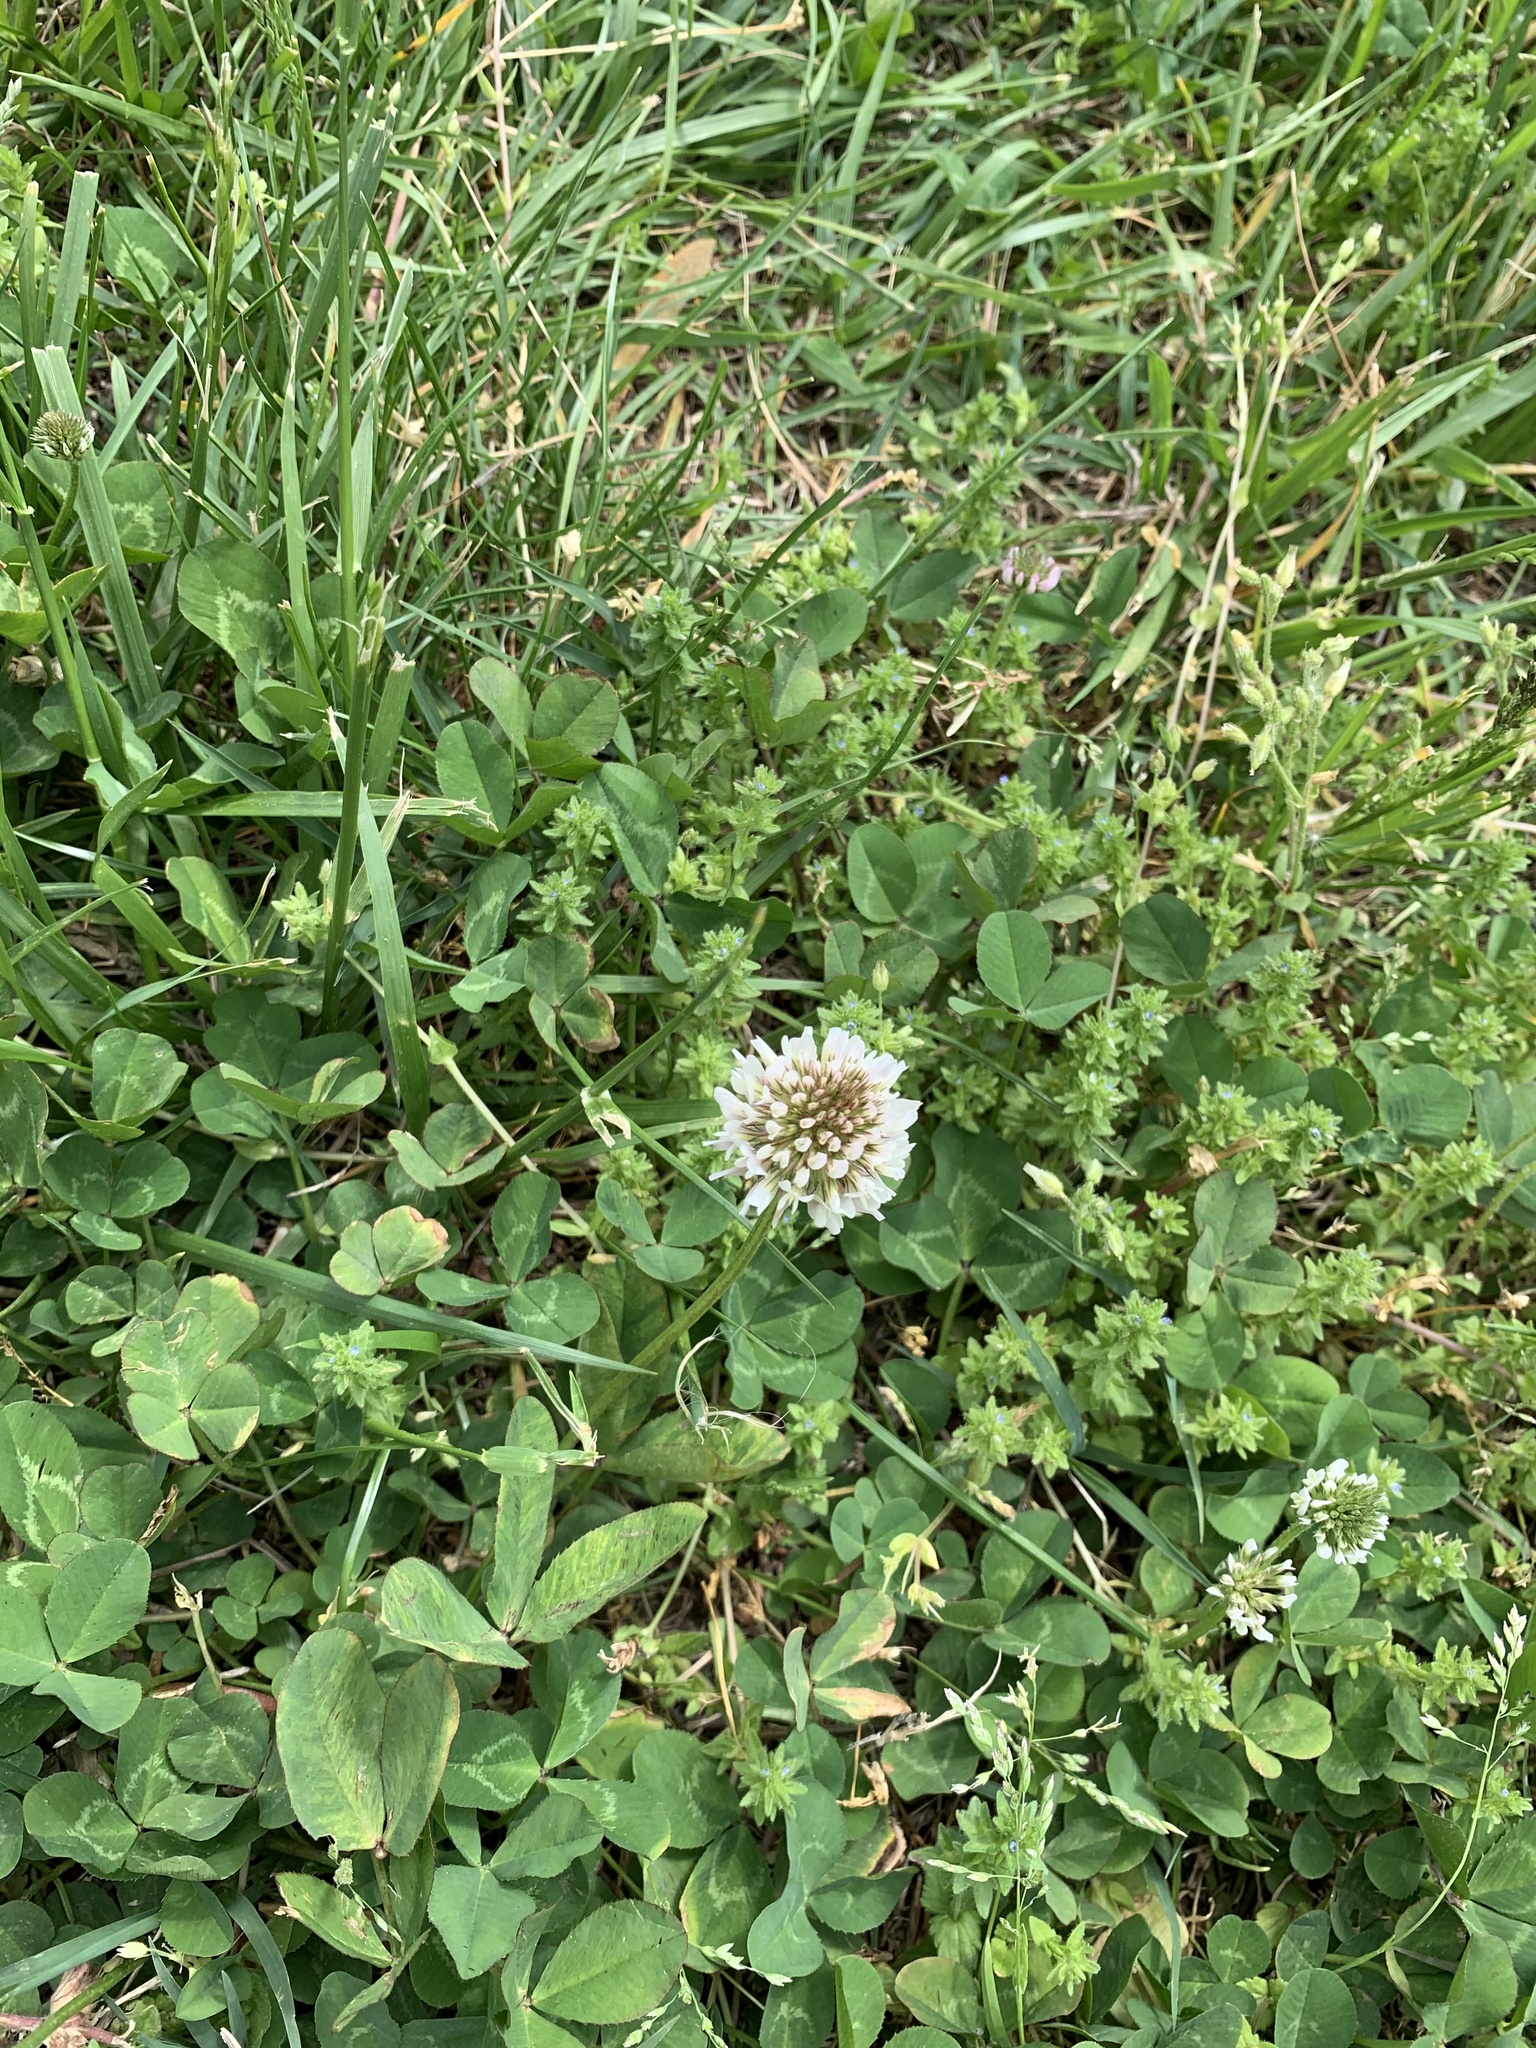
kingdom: Plantae
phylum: Tracheophyta
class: Magnoliopsida
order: Fabales
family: Fabaceae
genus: Trifolium
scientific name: Trifolium repens
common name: White clover
